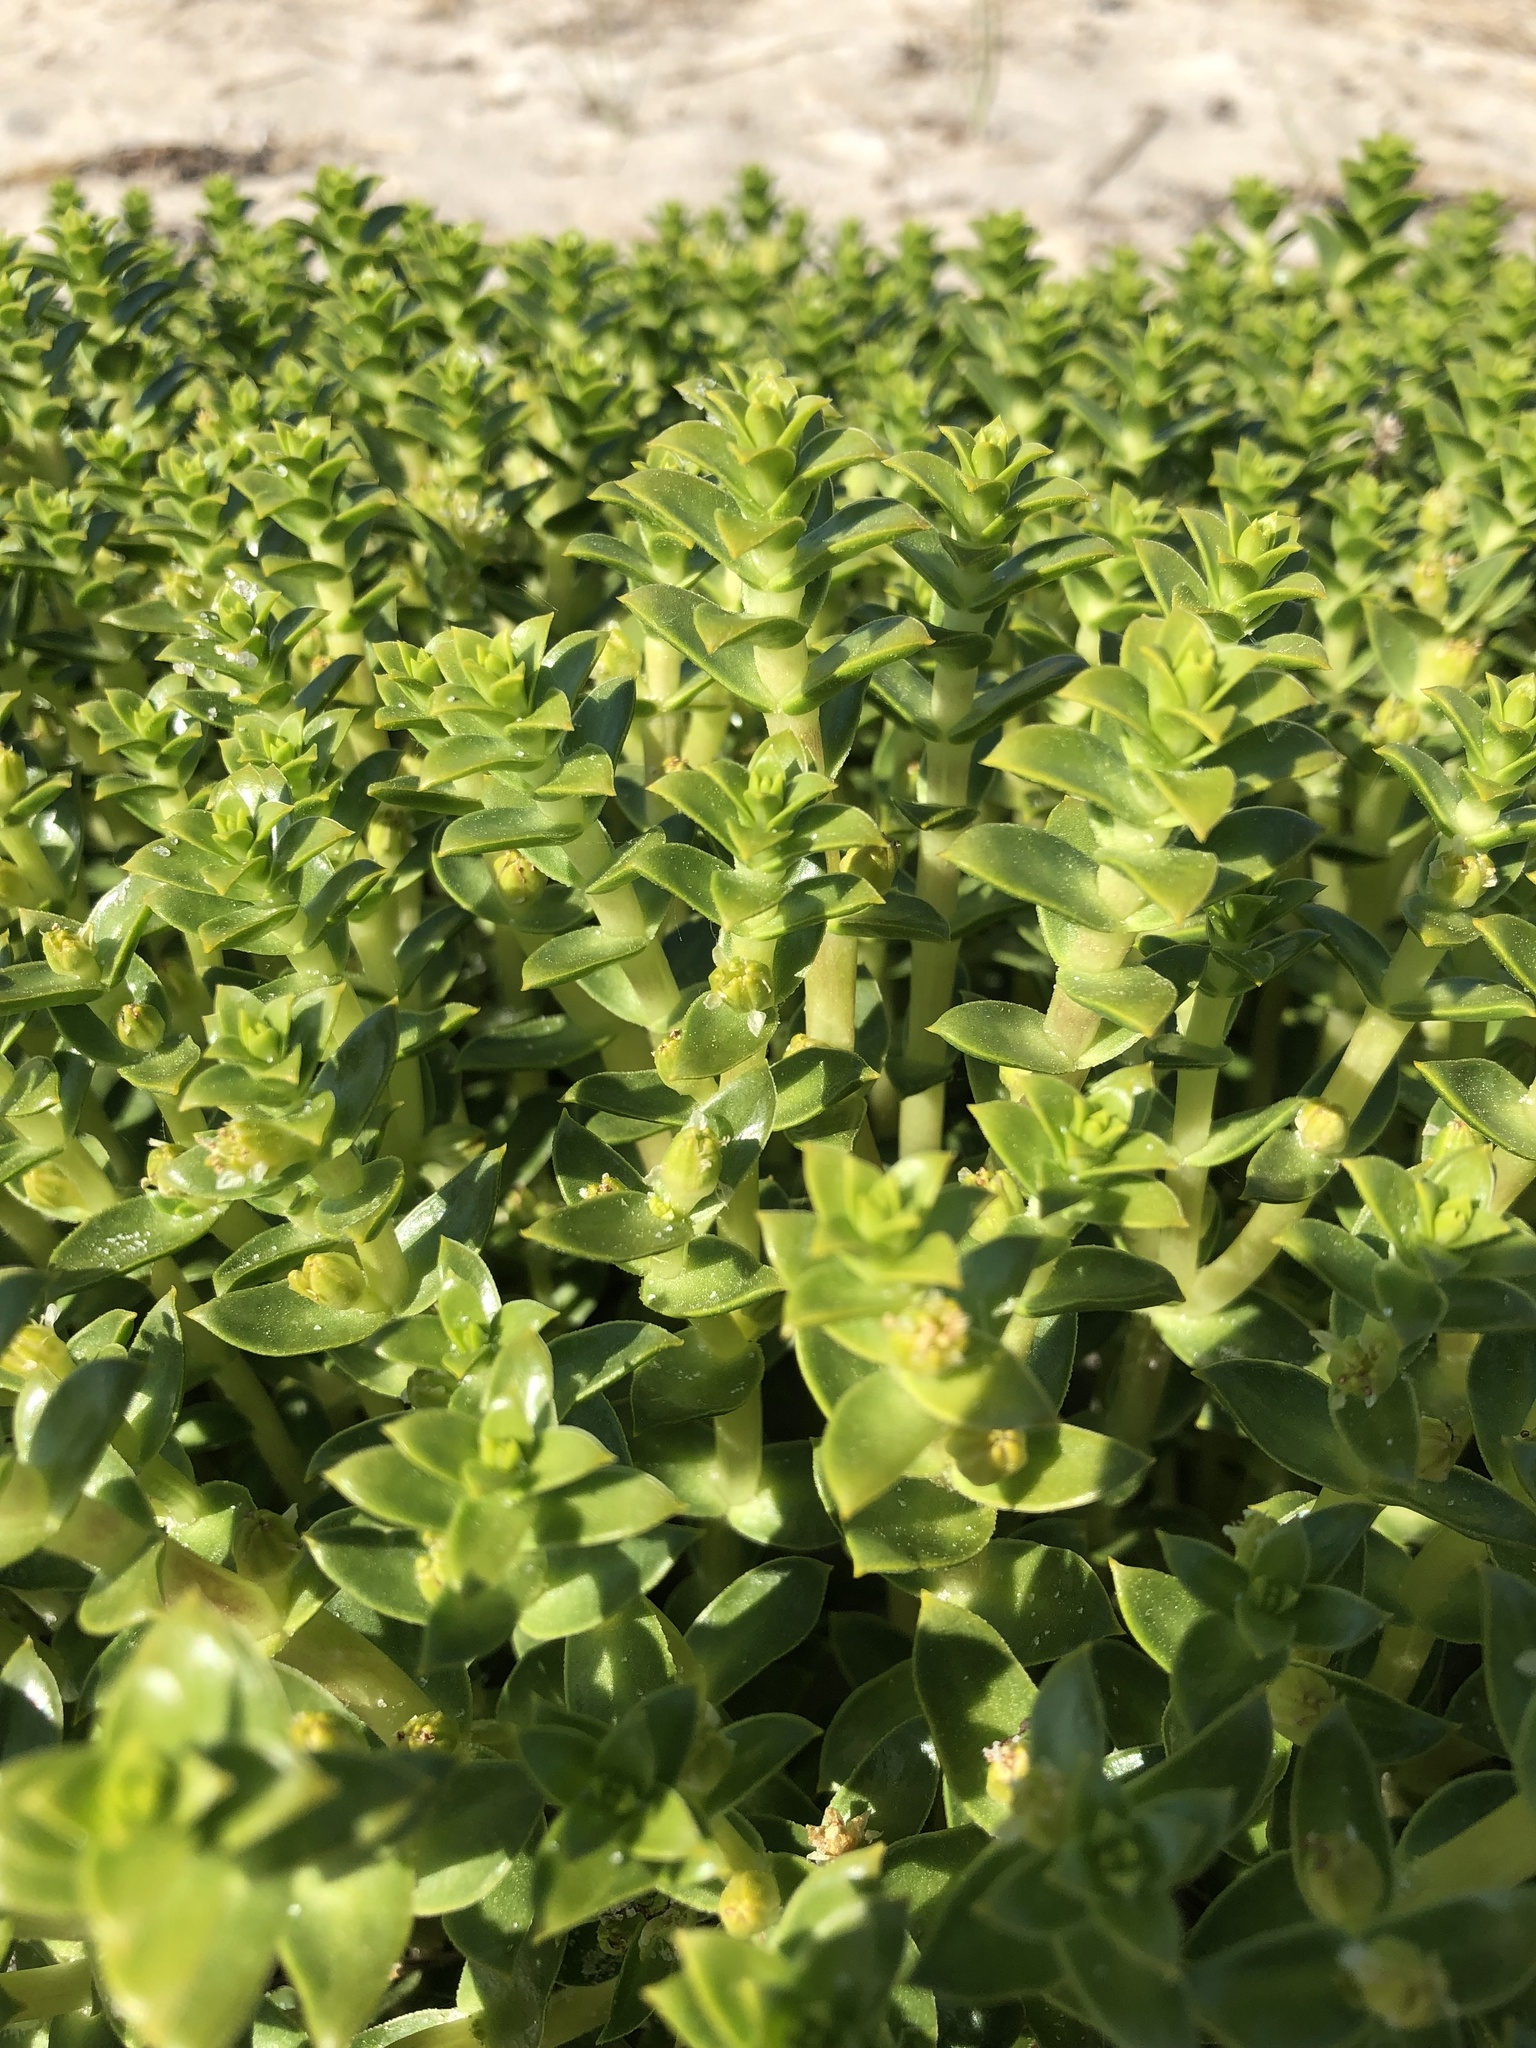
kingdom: Plantae
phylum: Tracheophyta
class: Magnoliopsida
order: Caryophyllales
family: Caryophyllaceae
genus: Honckenya
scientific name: Honckenya peploides
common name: Sea sandwort
